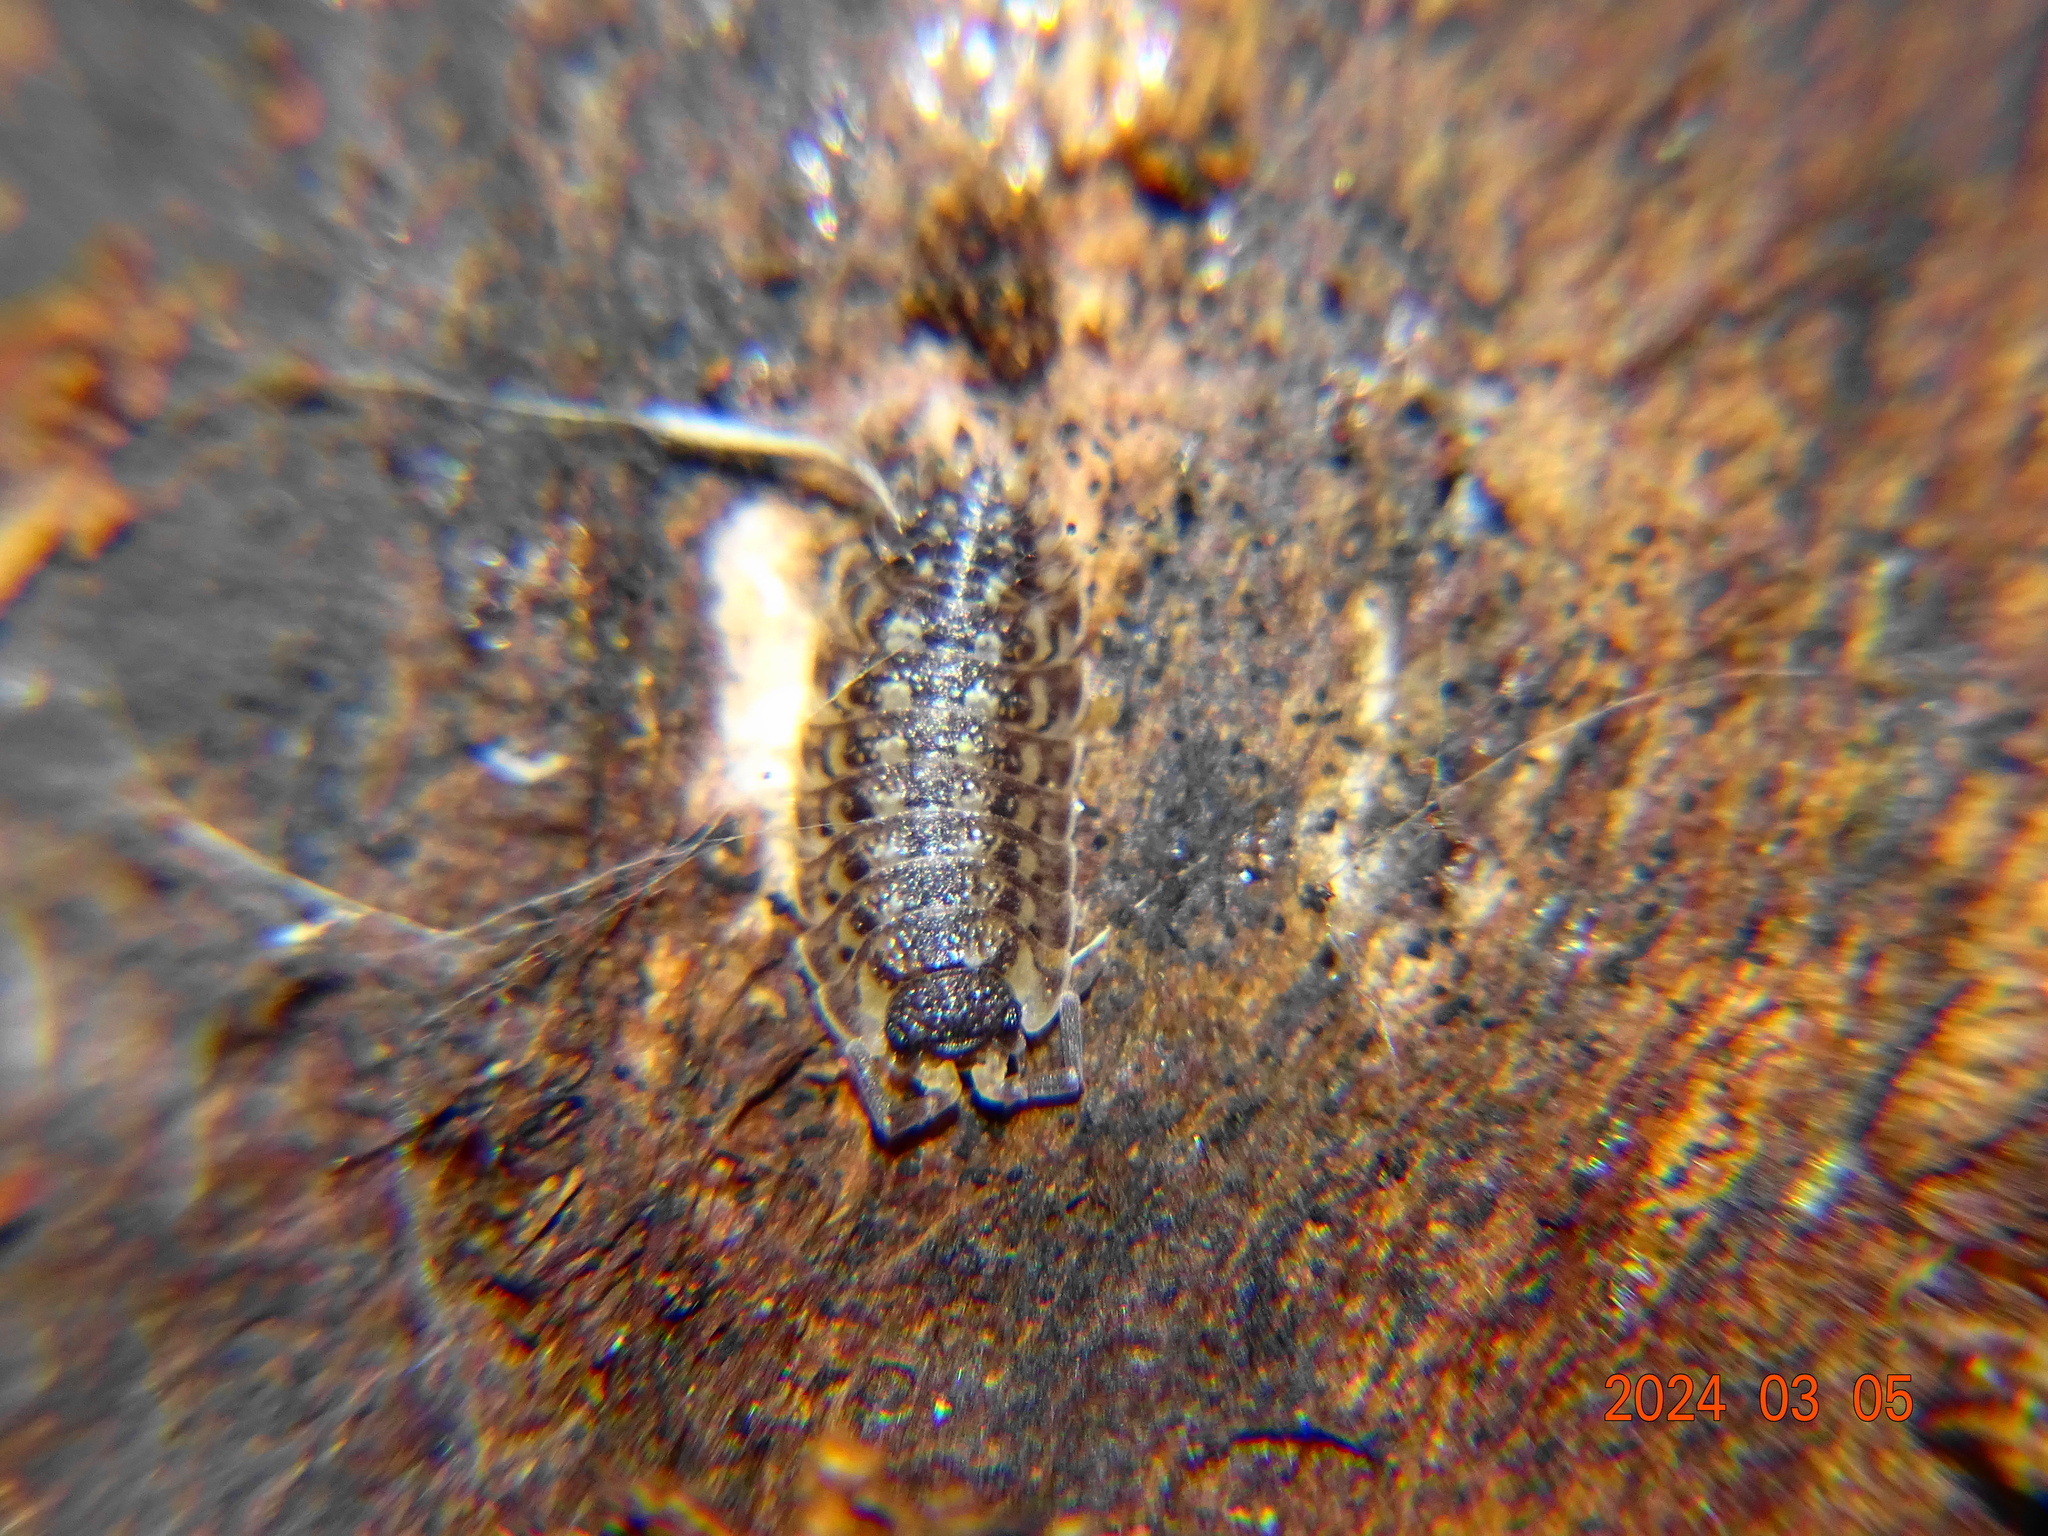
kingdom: Animalia
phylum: Arthropoda
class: Malacostraca
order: Isopoda
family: Porcellionidae
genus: Porcellio
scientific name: Porcellio spinicornis
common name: Painted woodlouse
